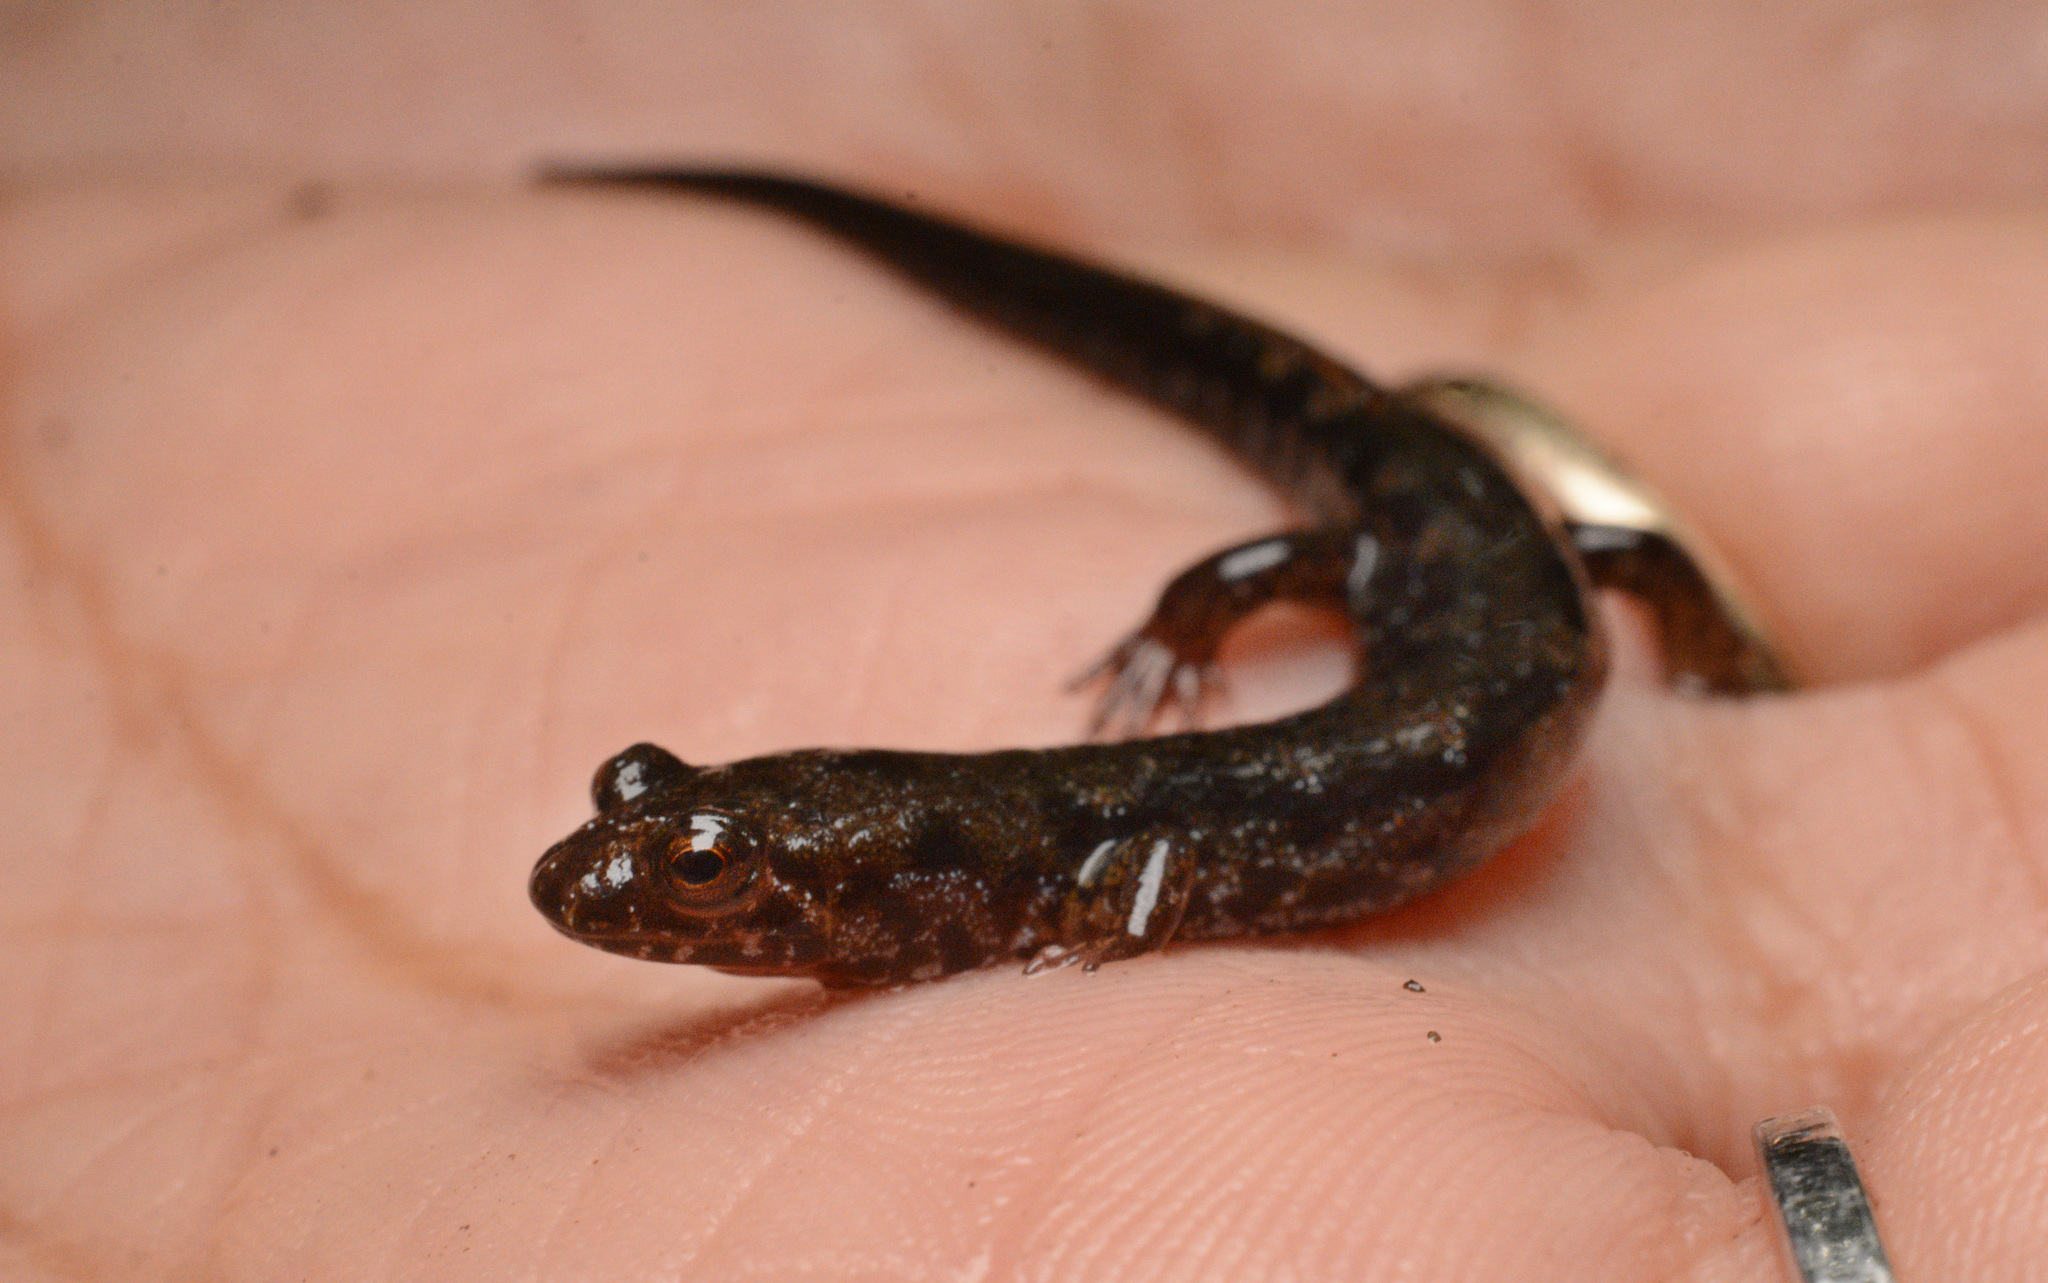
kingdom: Animalia
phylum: Chordata
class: Amphibia
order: Caudata
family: Plethodontidae
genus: Desmognathus
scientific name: Desmognathus imitator
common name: Imitator salamander
